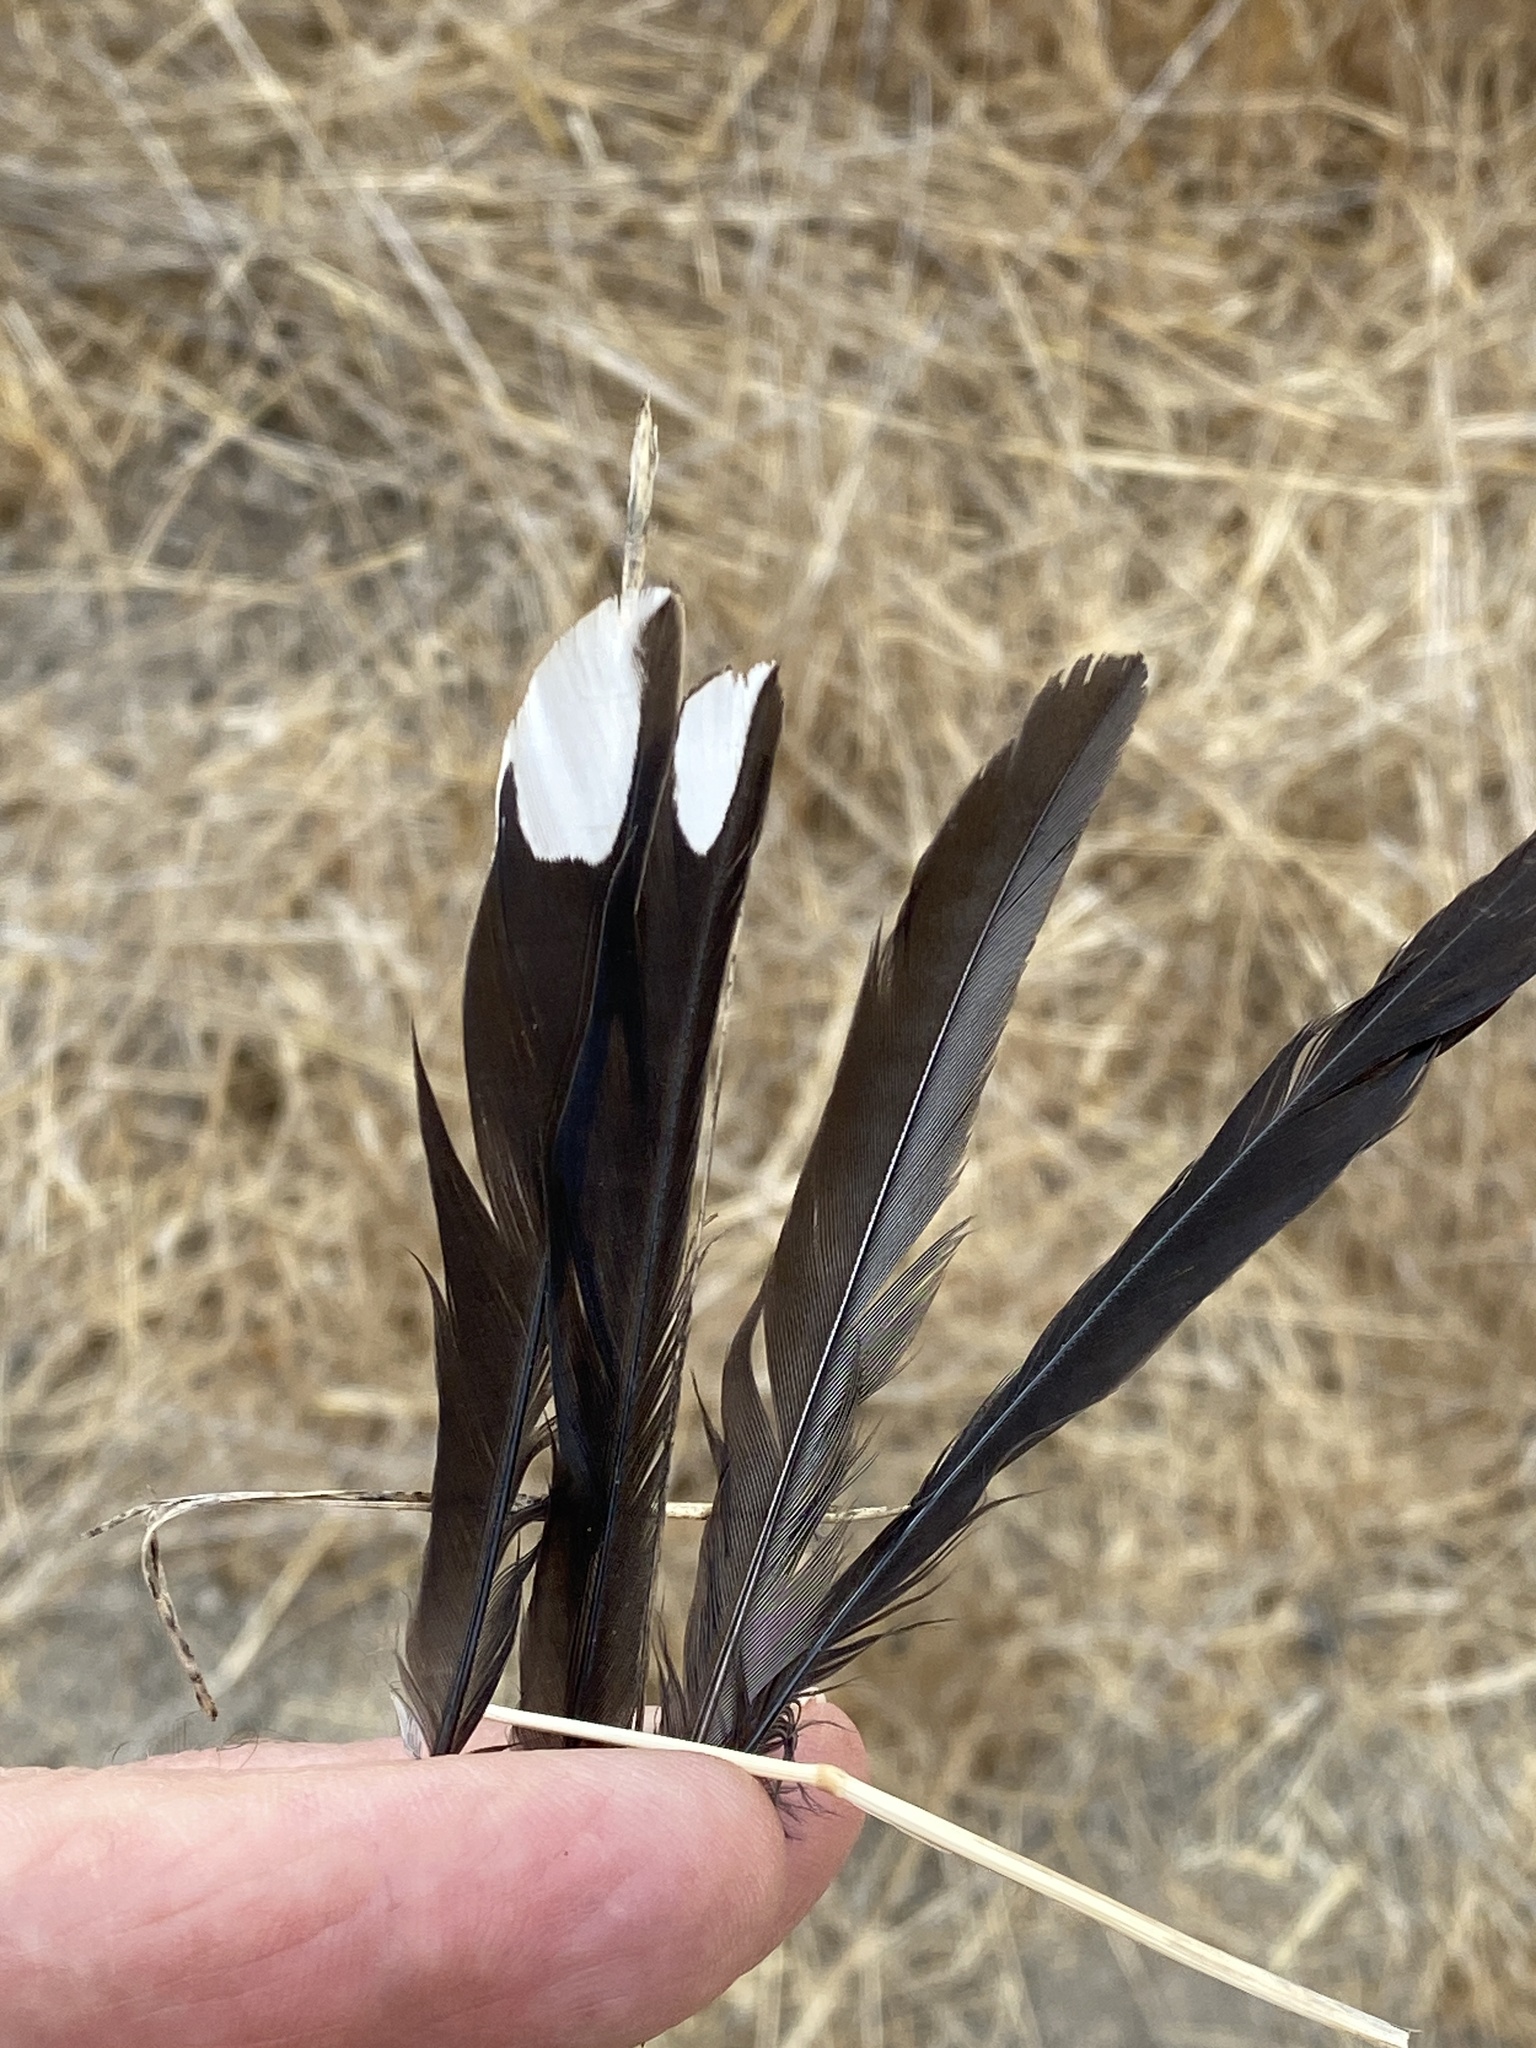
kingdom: Animalia
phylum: Chordata
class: Aves
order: Passeriformes
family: Passerellidae
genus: Pipilo
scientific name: Pipilo maculatus
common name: Spotted towhee
